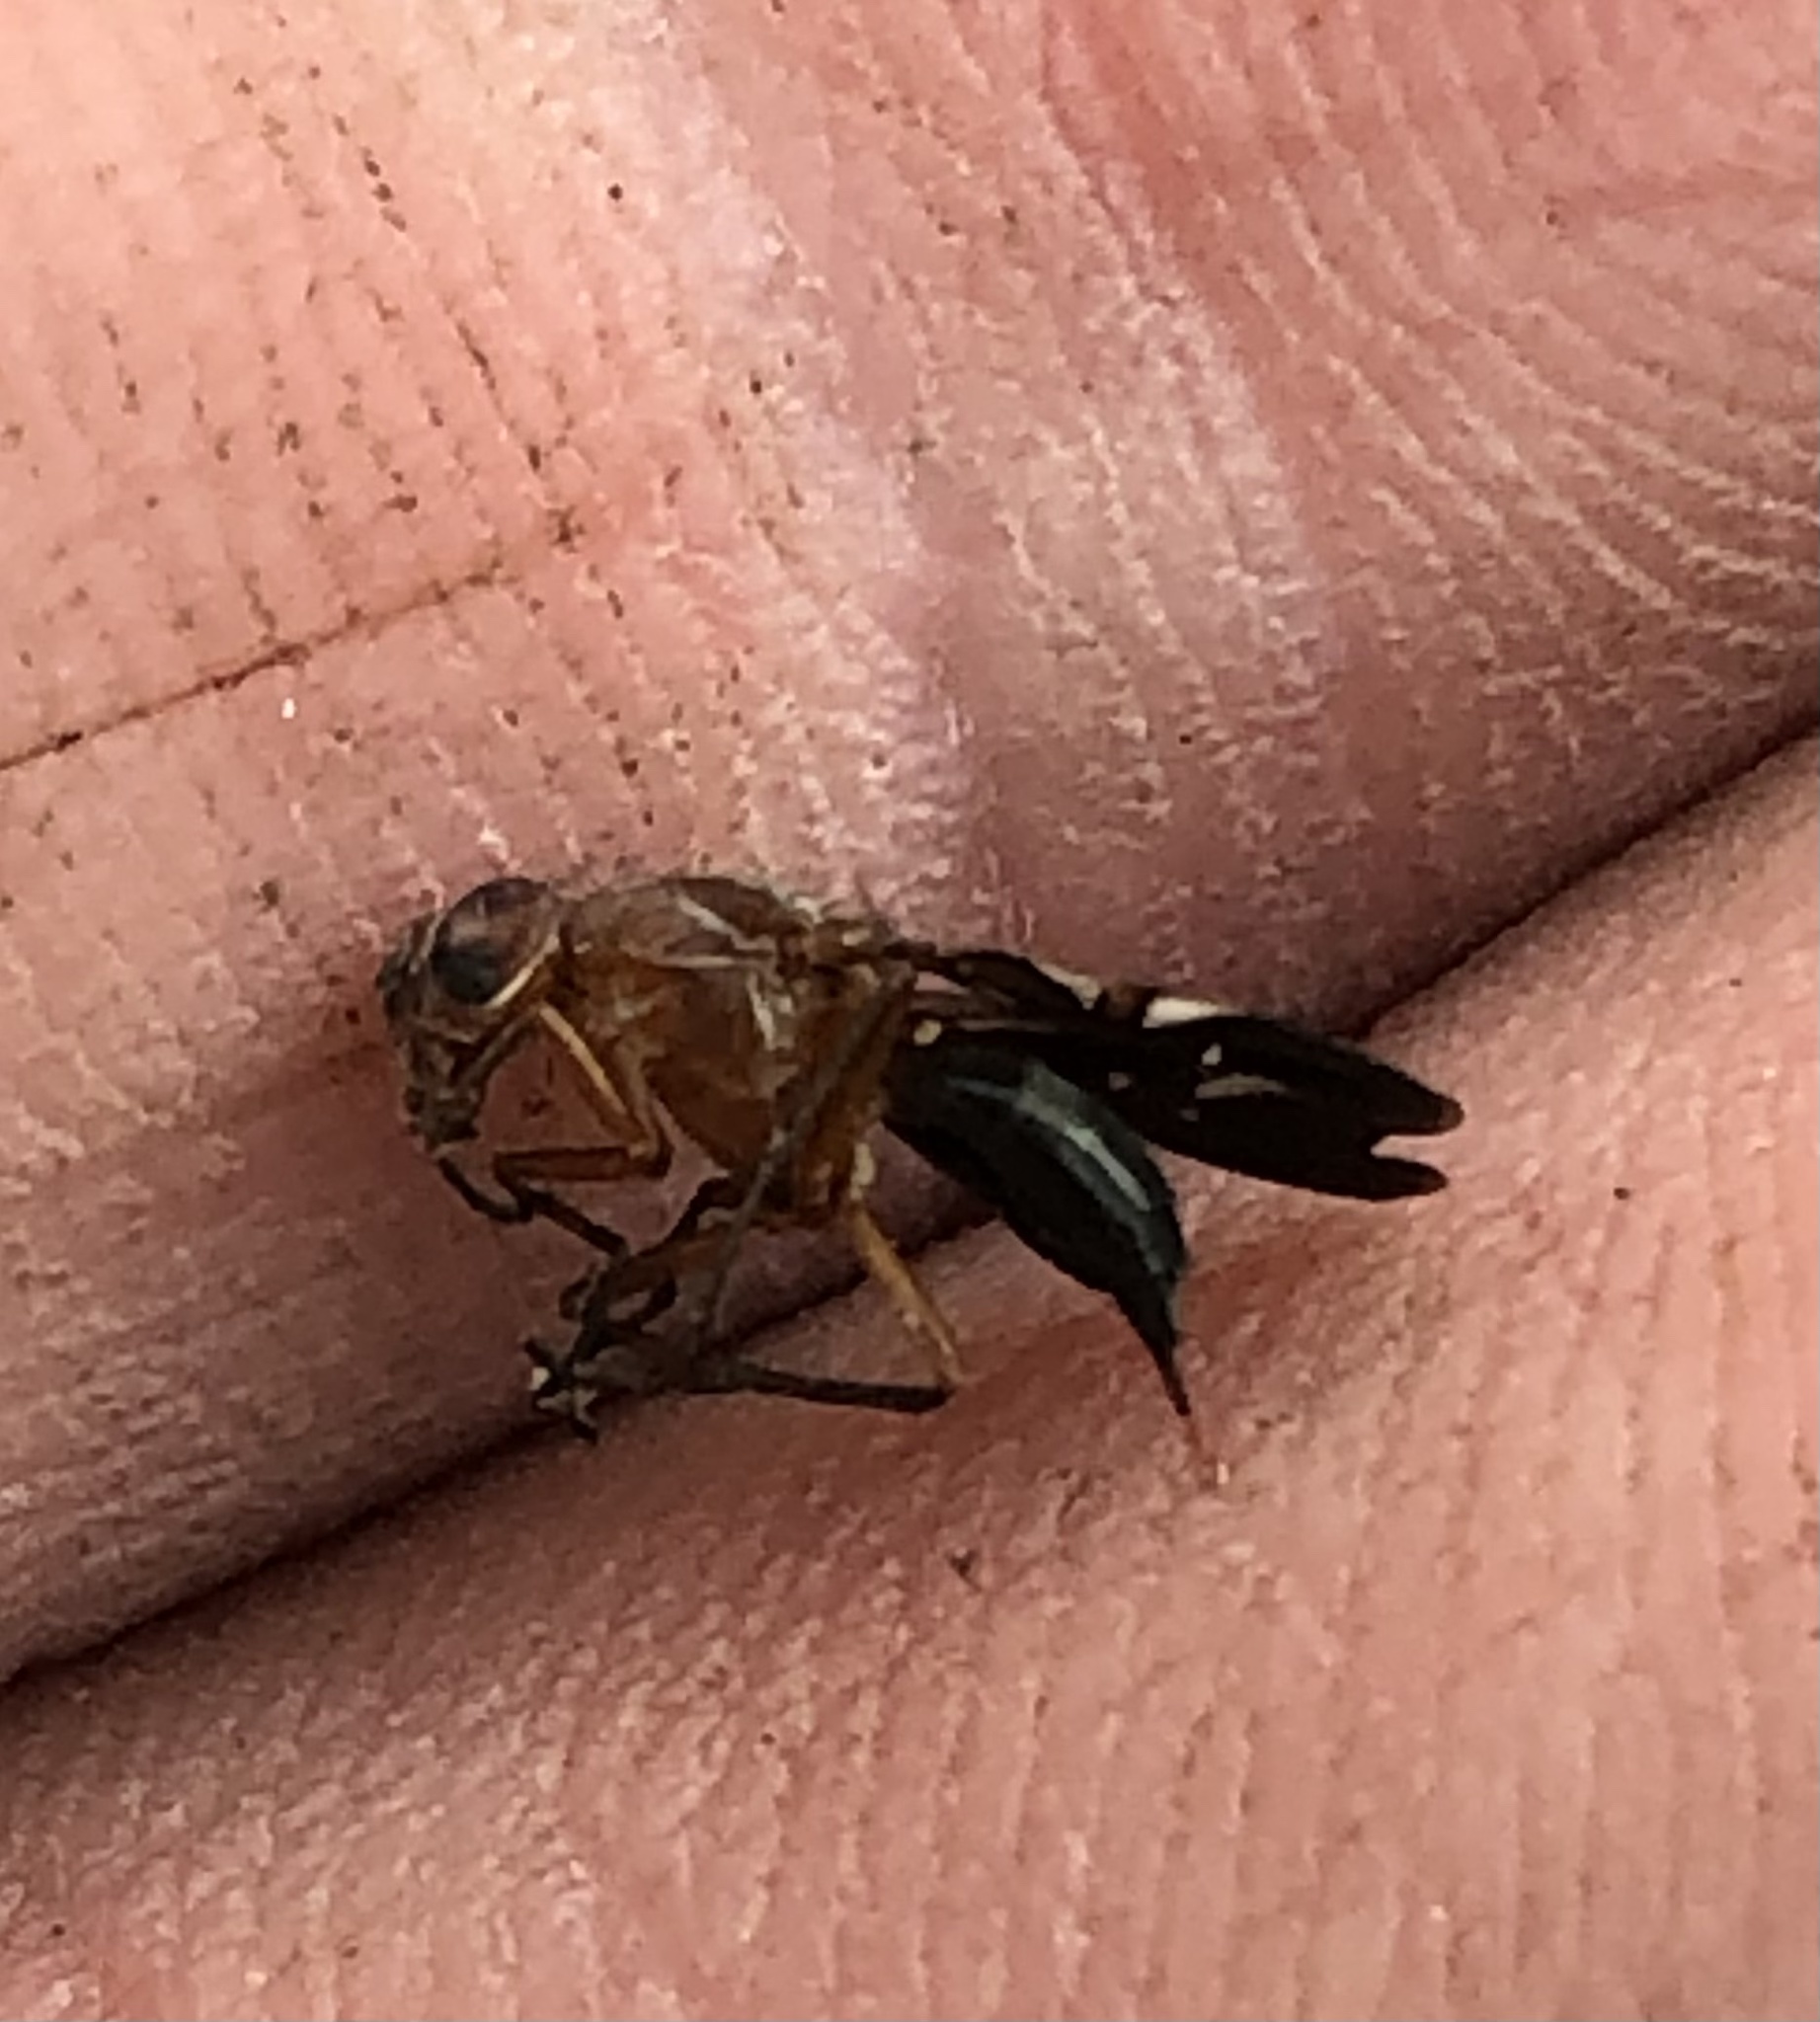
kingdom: Animalia
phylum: Arthropoda
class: Insecta
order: Diptera
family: Ulidiidae
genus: Delphinia
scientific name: Delphinia picta
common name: Common picture-winged fly
